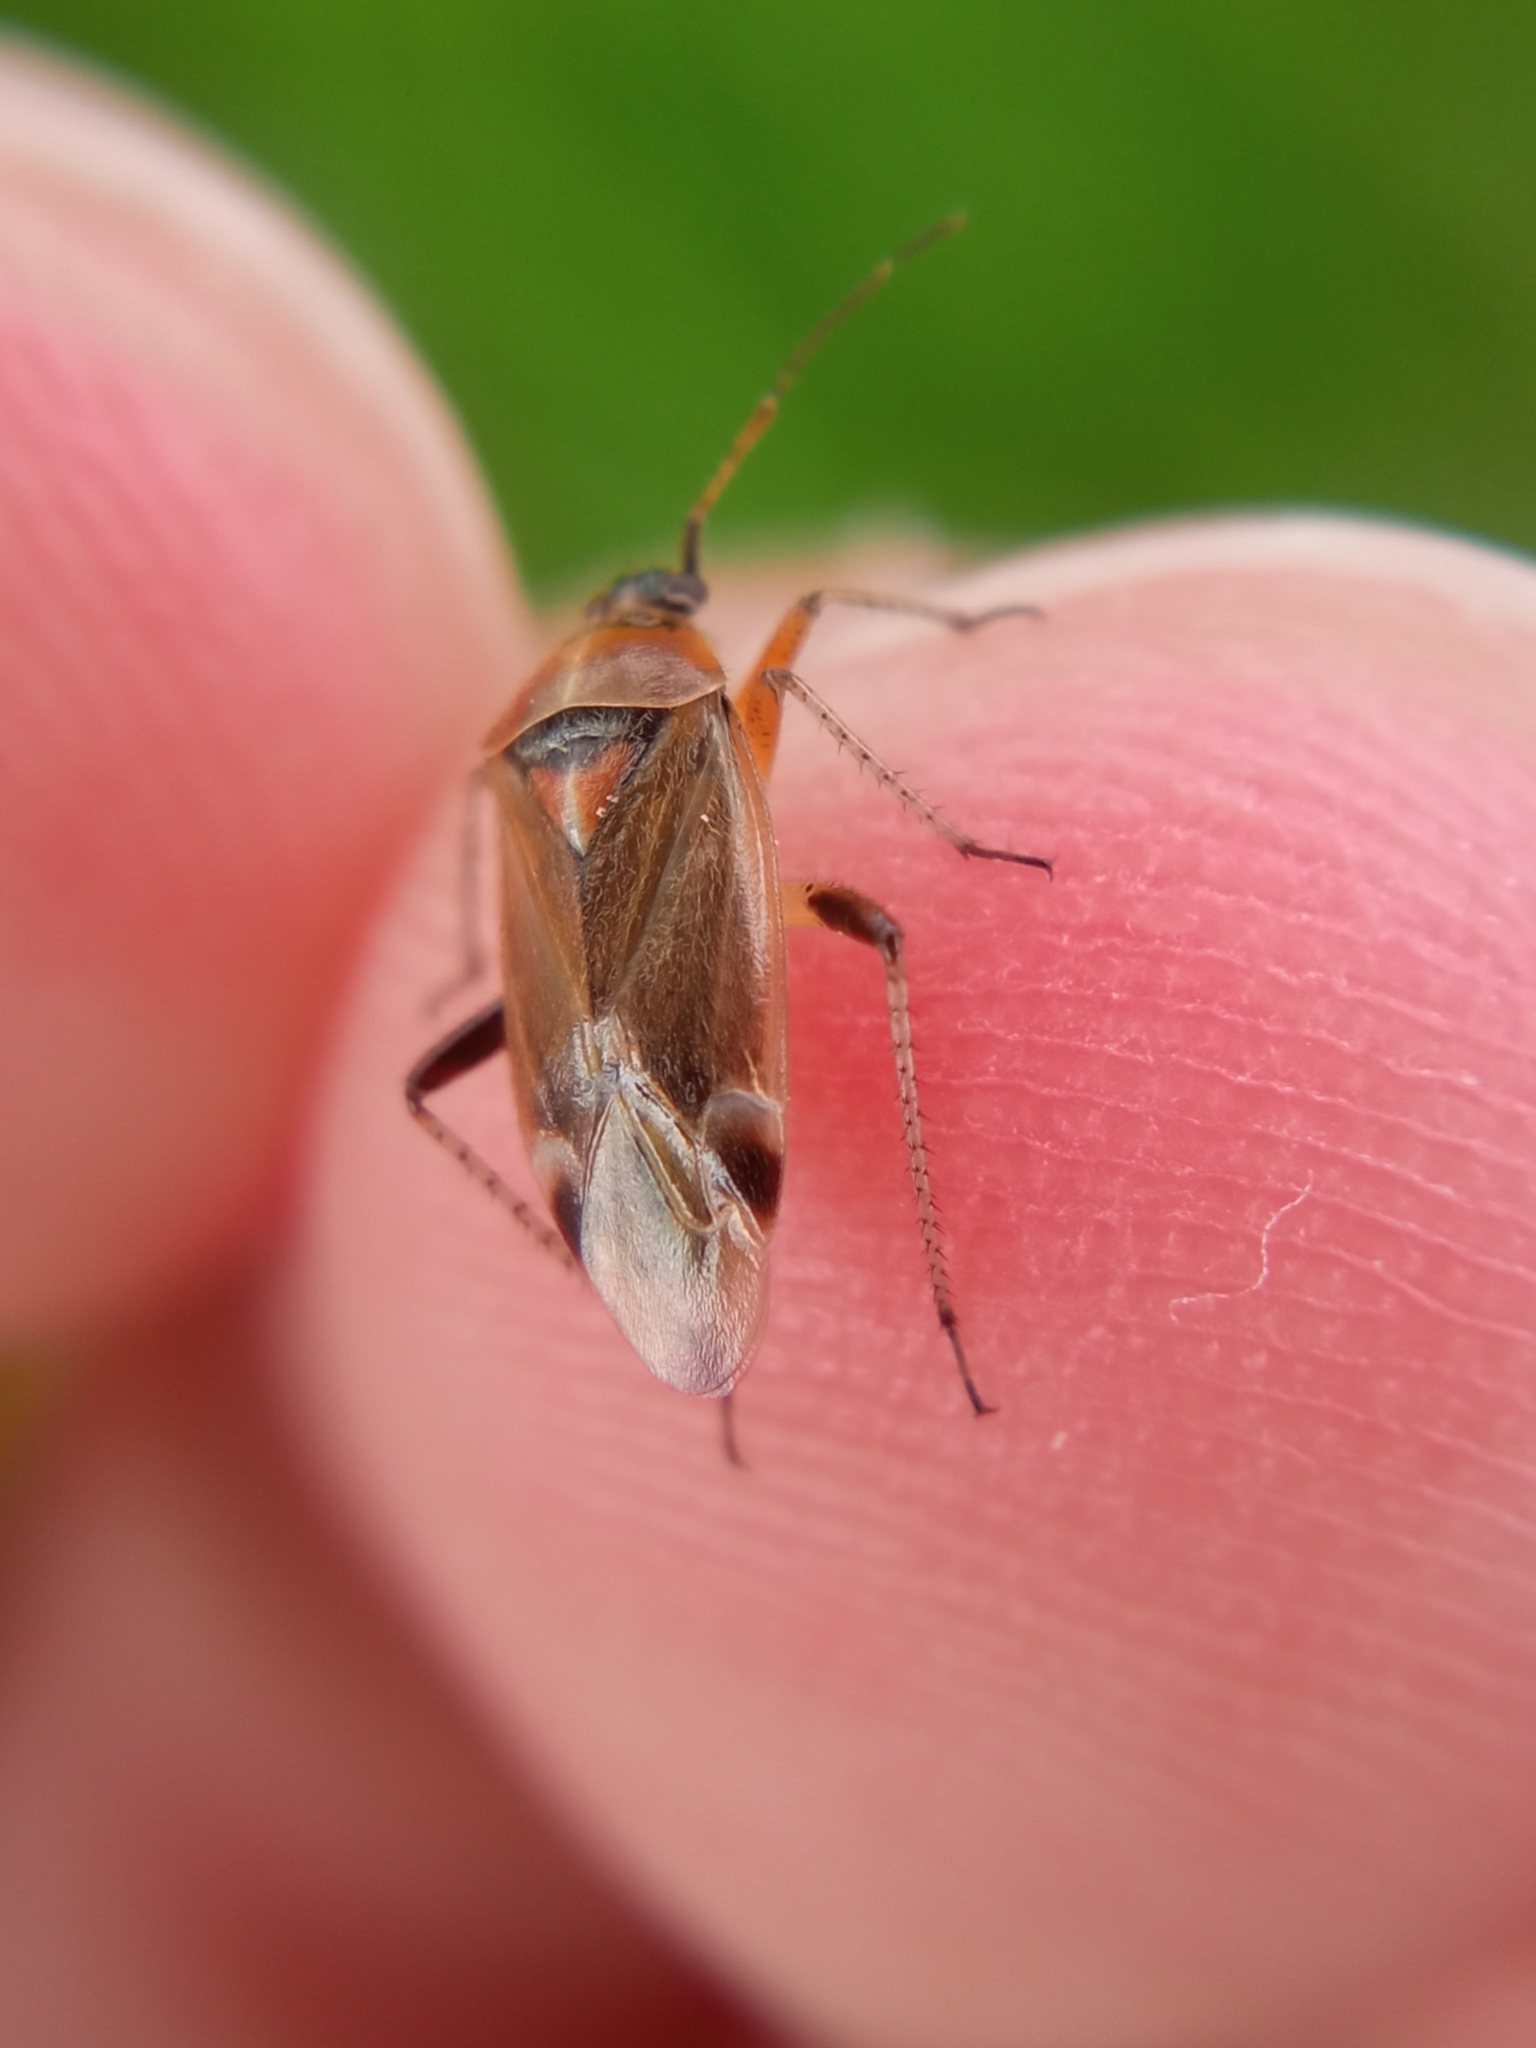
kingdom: Animalia
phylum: Arthropoda
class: Insecta
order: Hemiptera
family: Miridae
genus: Harpocera
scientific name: Harpocera thoracica
